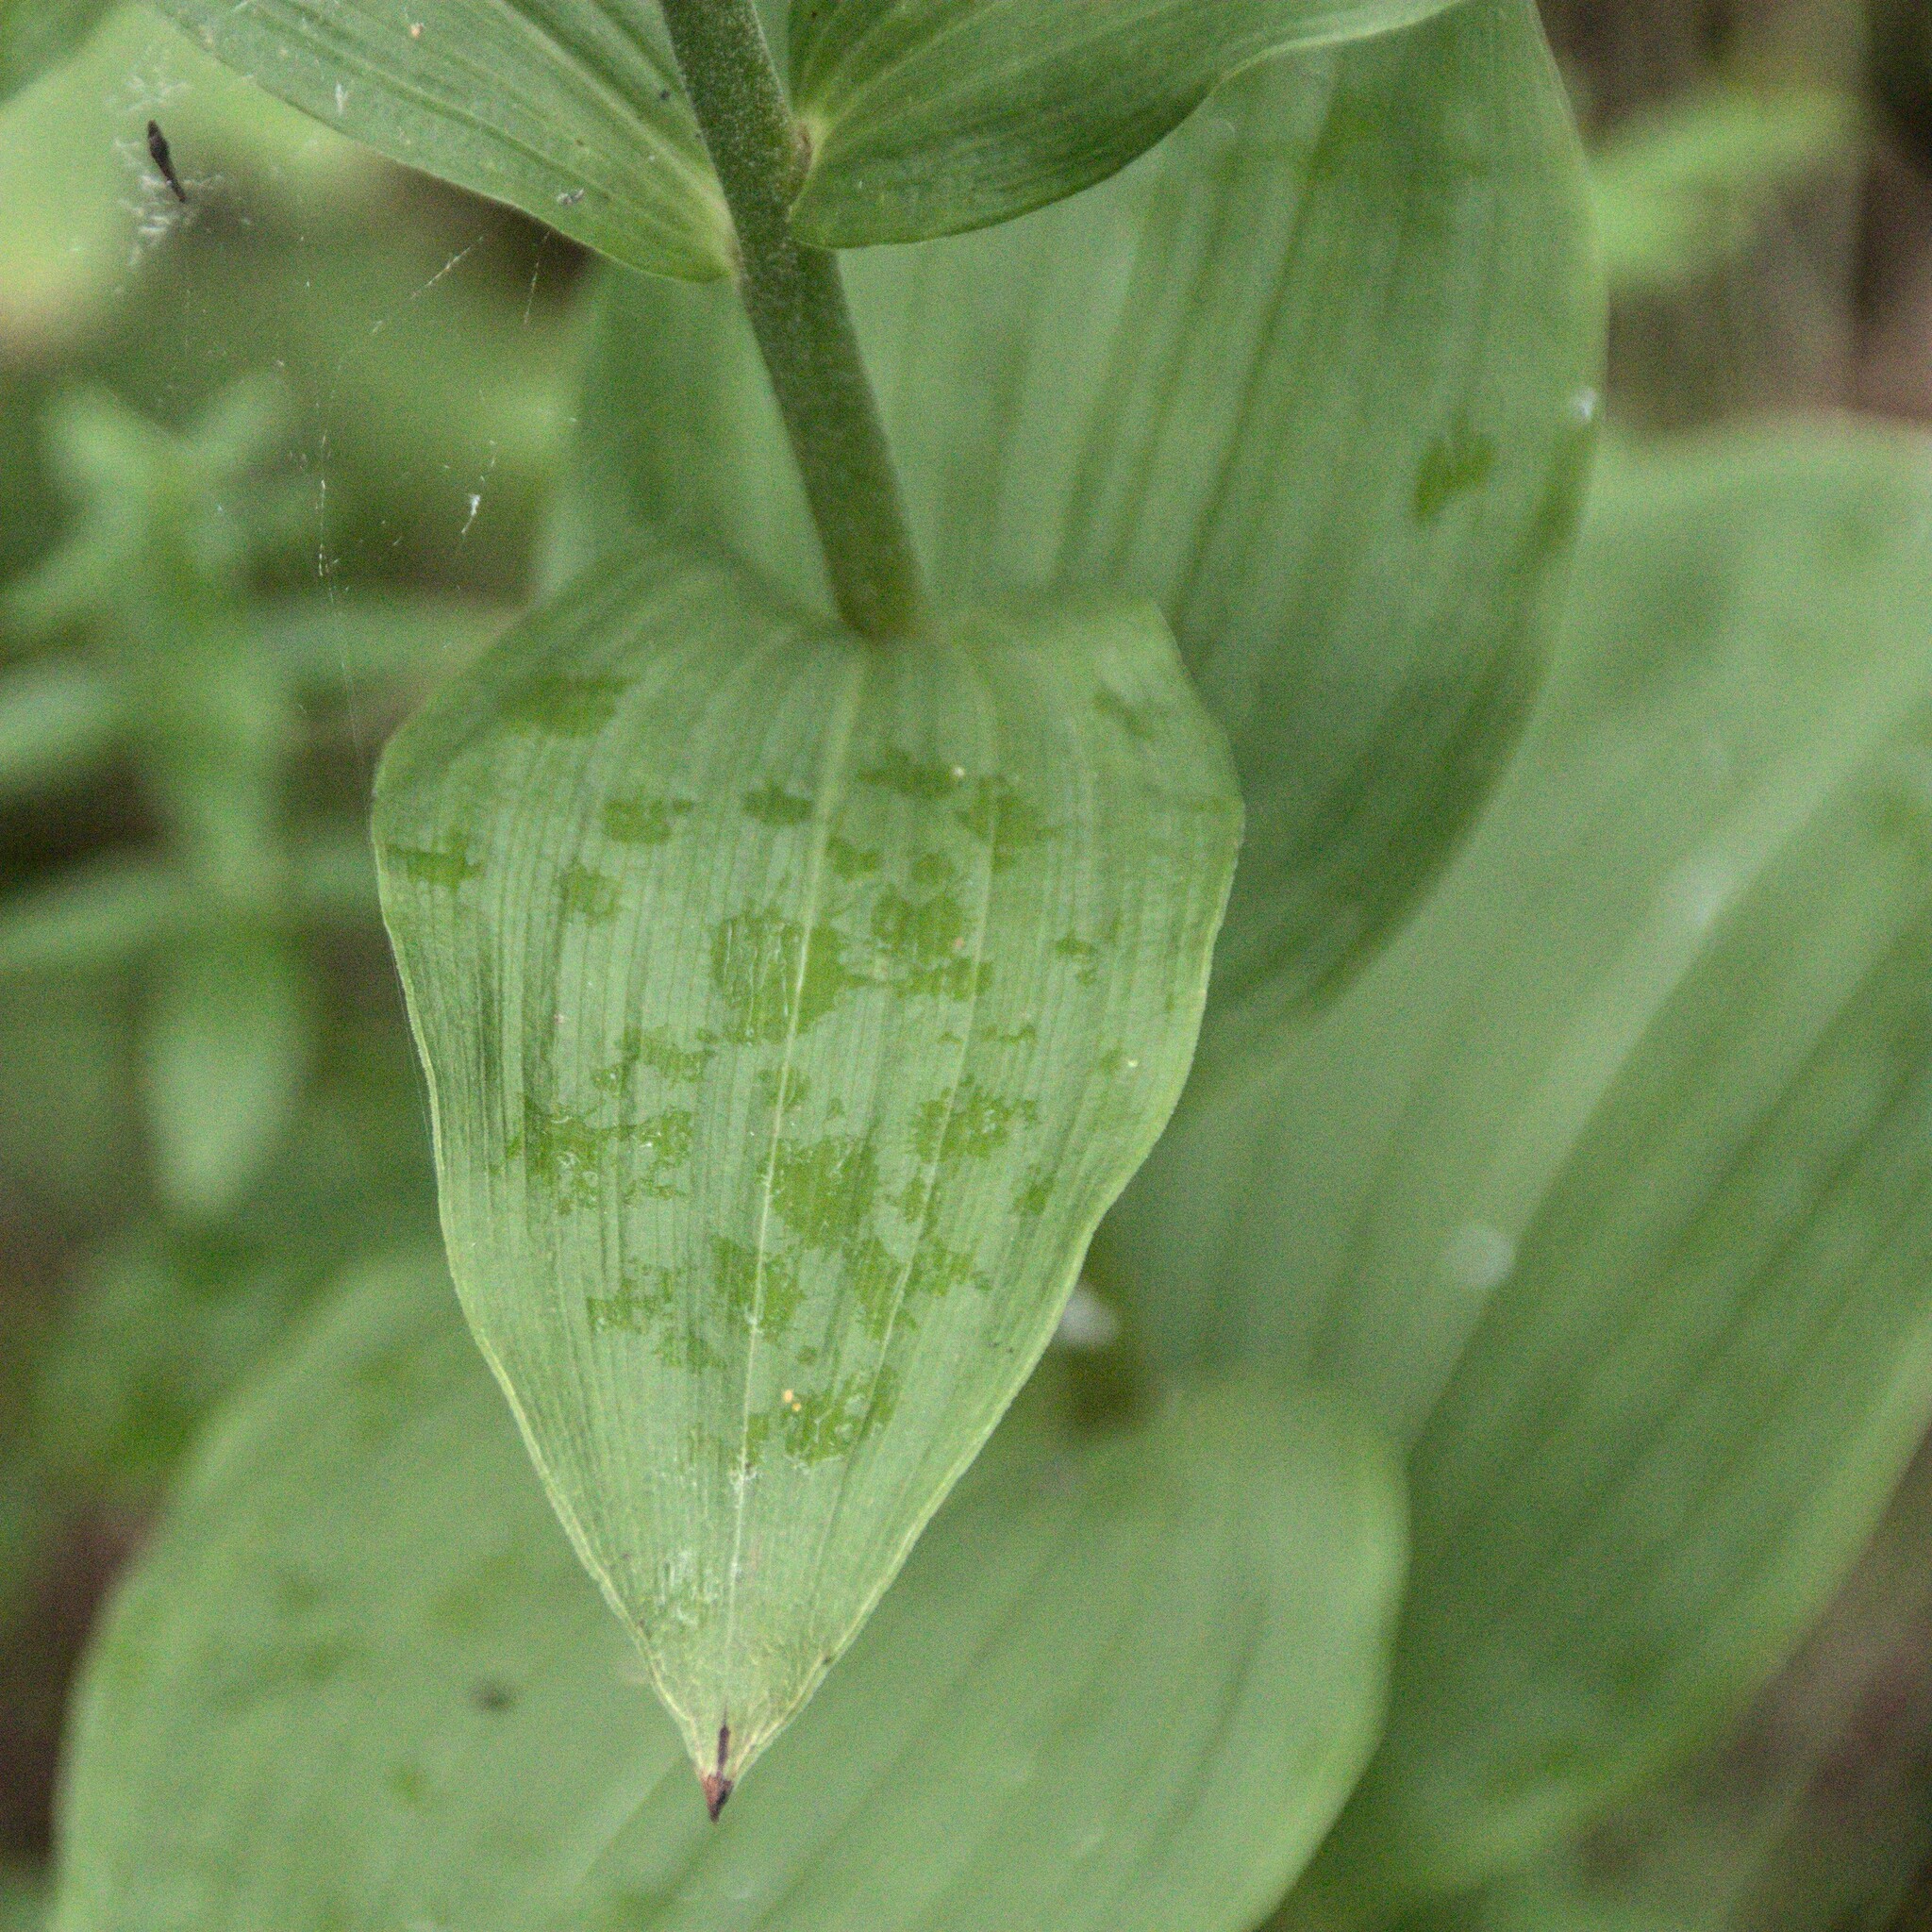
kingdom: Plantae
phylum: Tracheophyta
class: Liliopsida
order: Asparagales
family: Orchidaceae
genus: Epipactis
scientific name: Epipactis helleborine
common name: Broad-leaved helleborine
